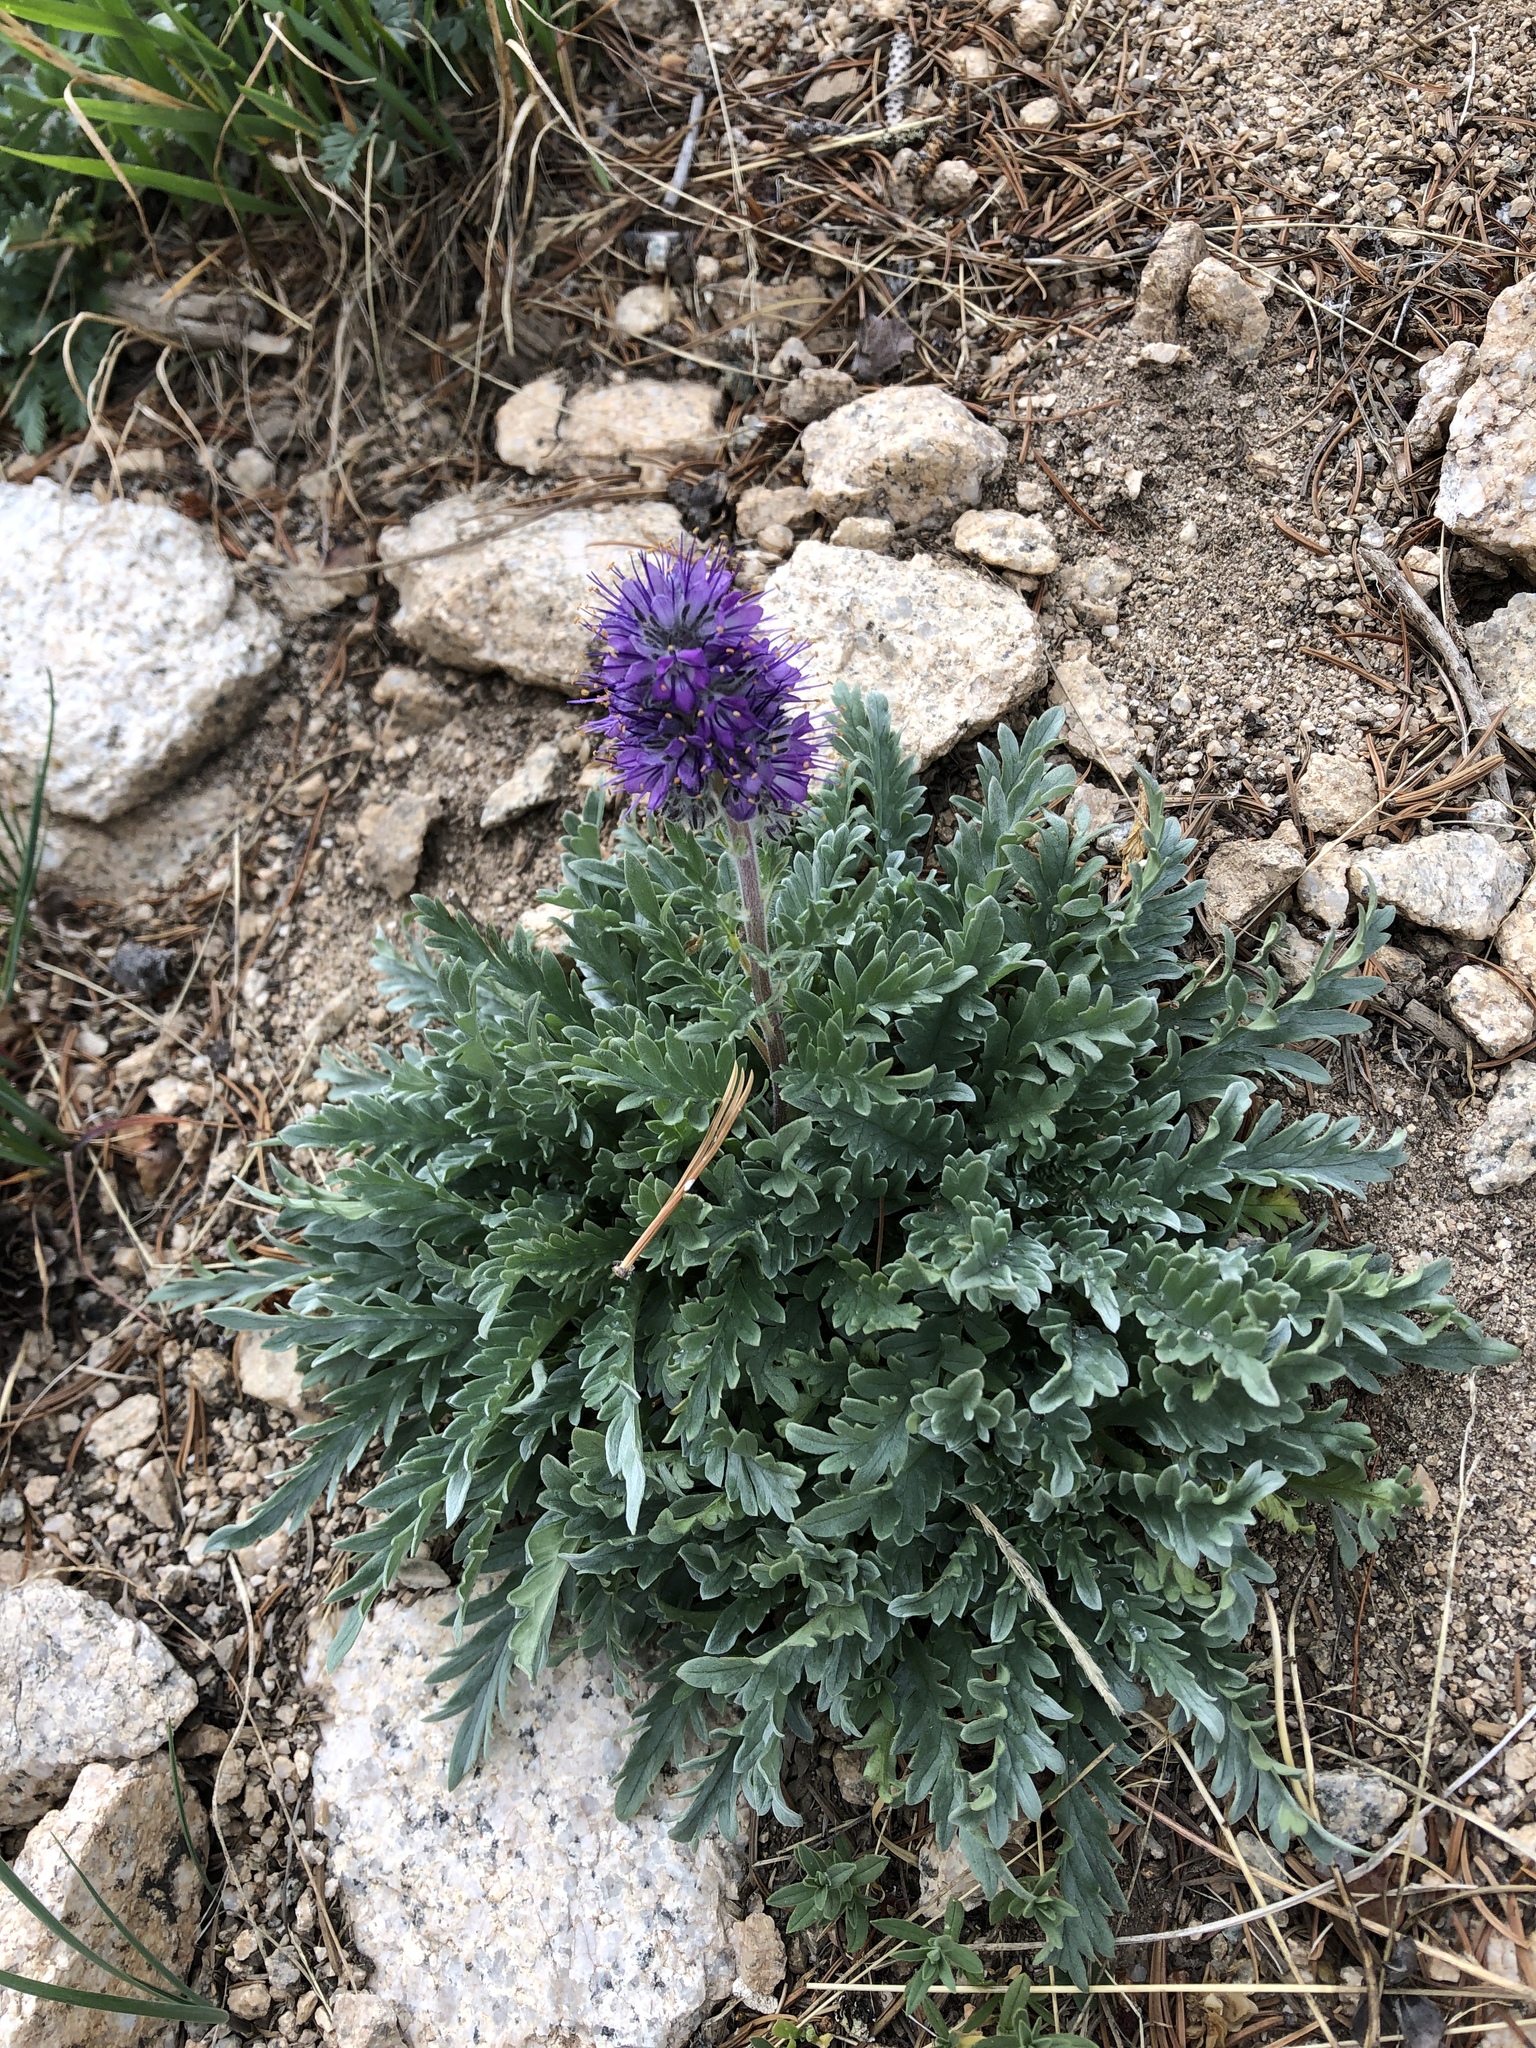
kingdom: Plantae
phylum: Tracheophyta
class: Magnoliopsida
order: Boraginales
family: Hydrophyllaceae
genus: Phacelia
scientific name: Phacelia sericea
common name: Silky phacelia
